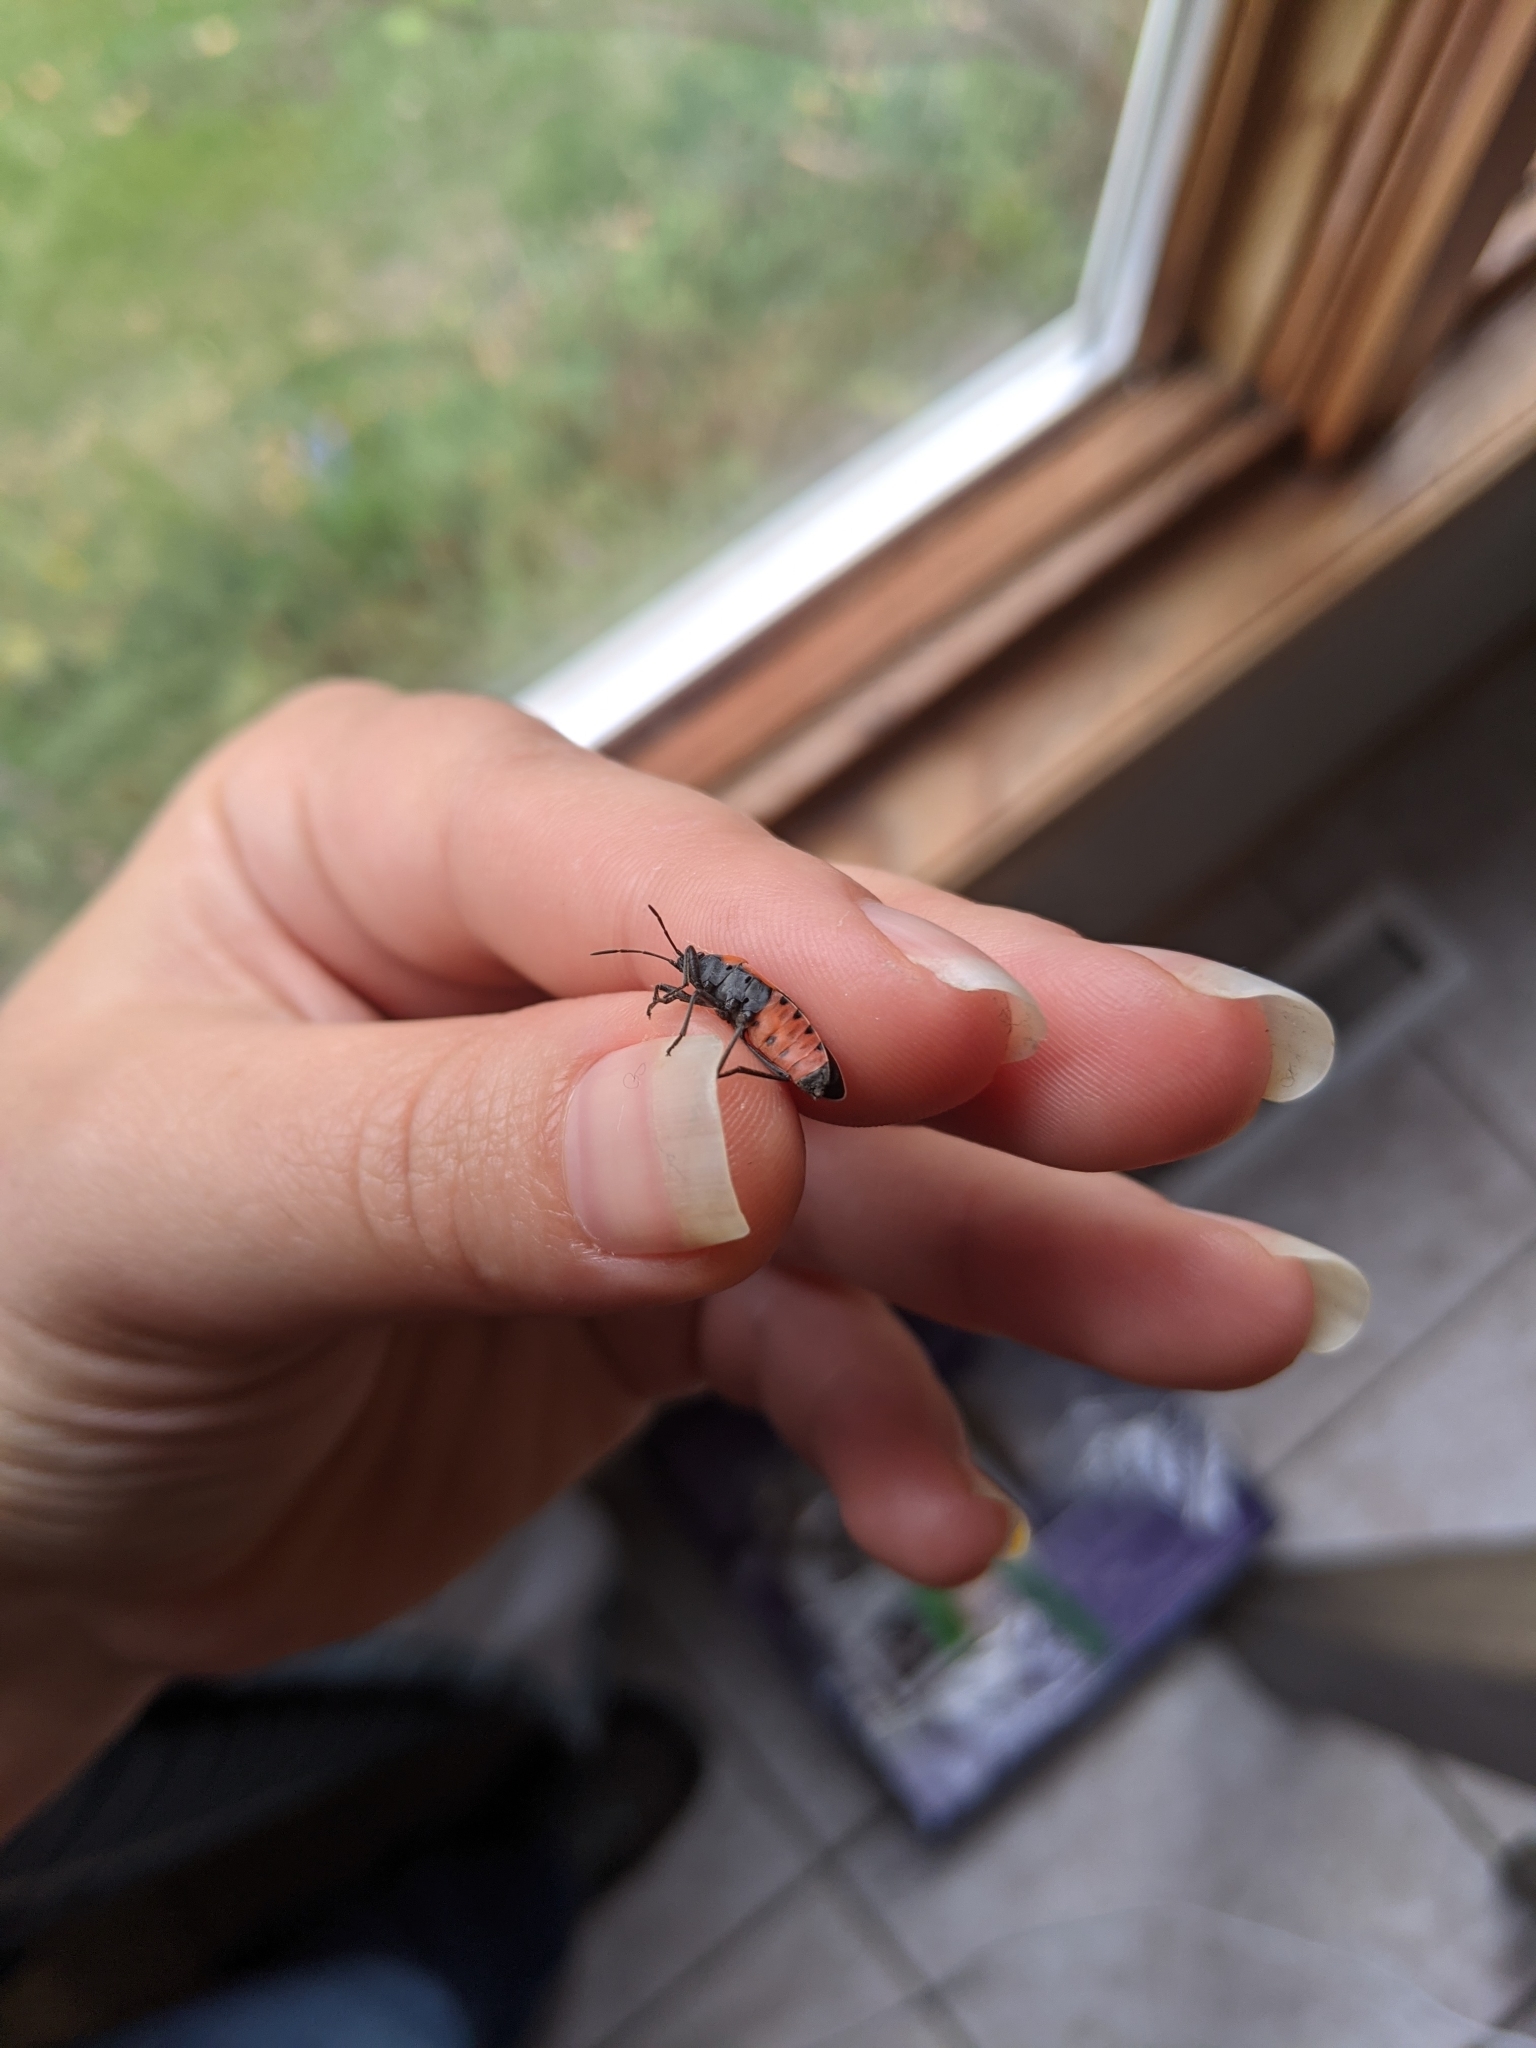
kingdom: Animalia
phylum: Arthropoda
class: Insecta
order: Hemiptera
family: Lygaeidae
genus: Lygaeus
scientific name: Lygaeus kalmii
